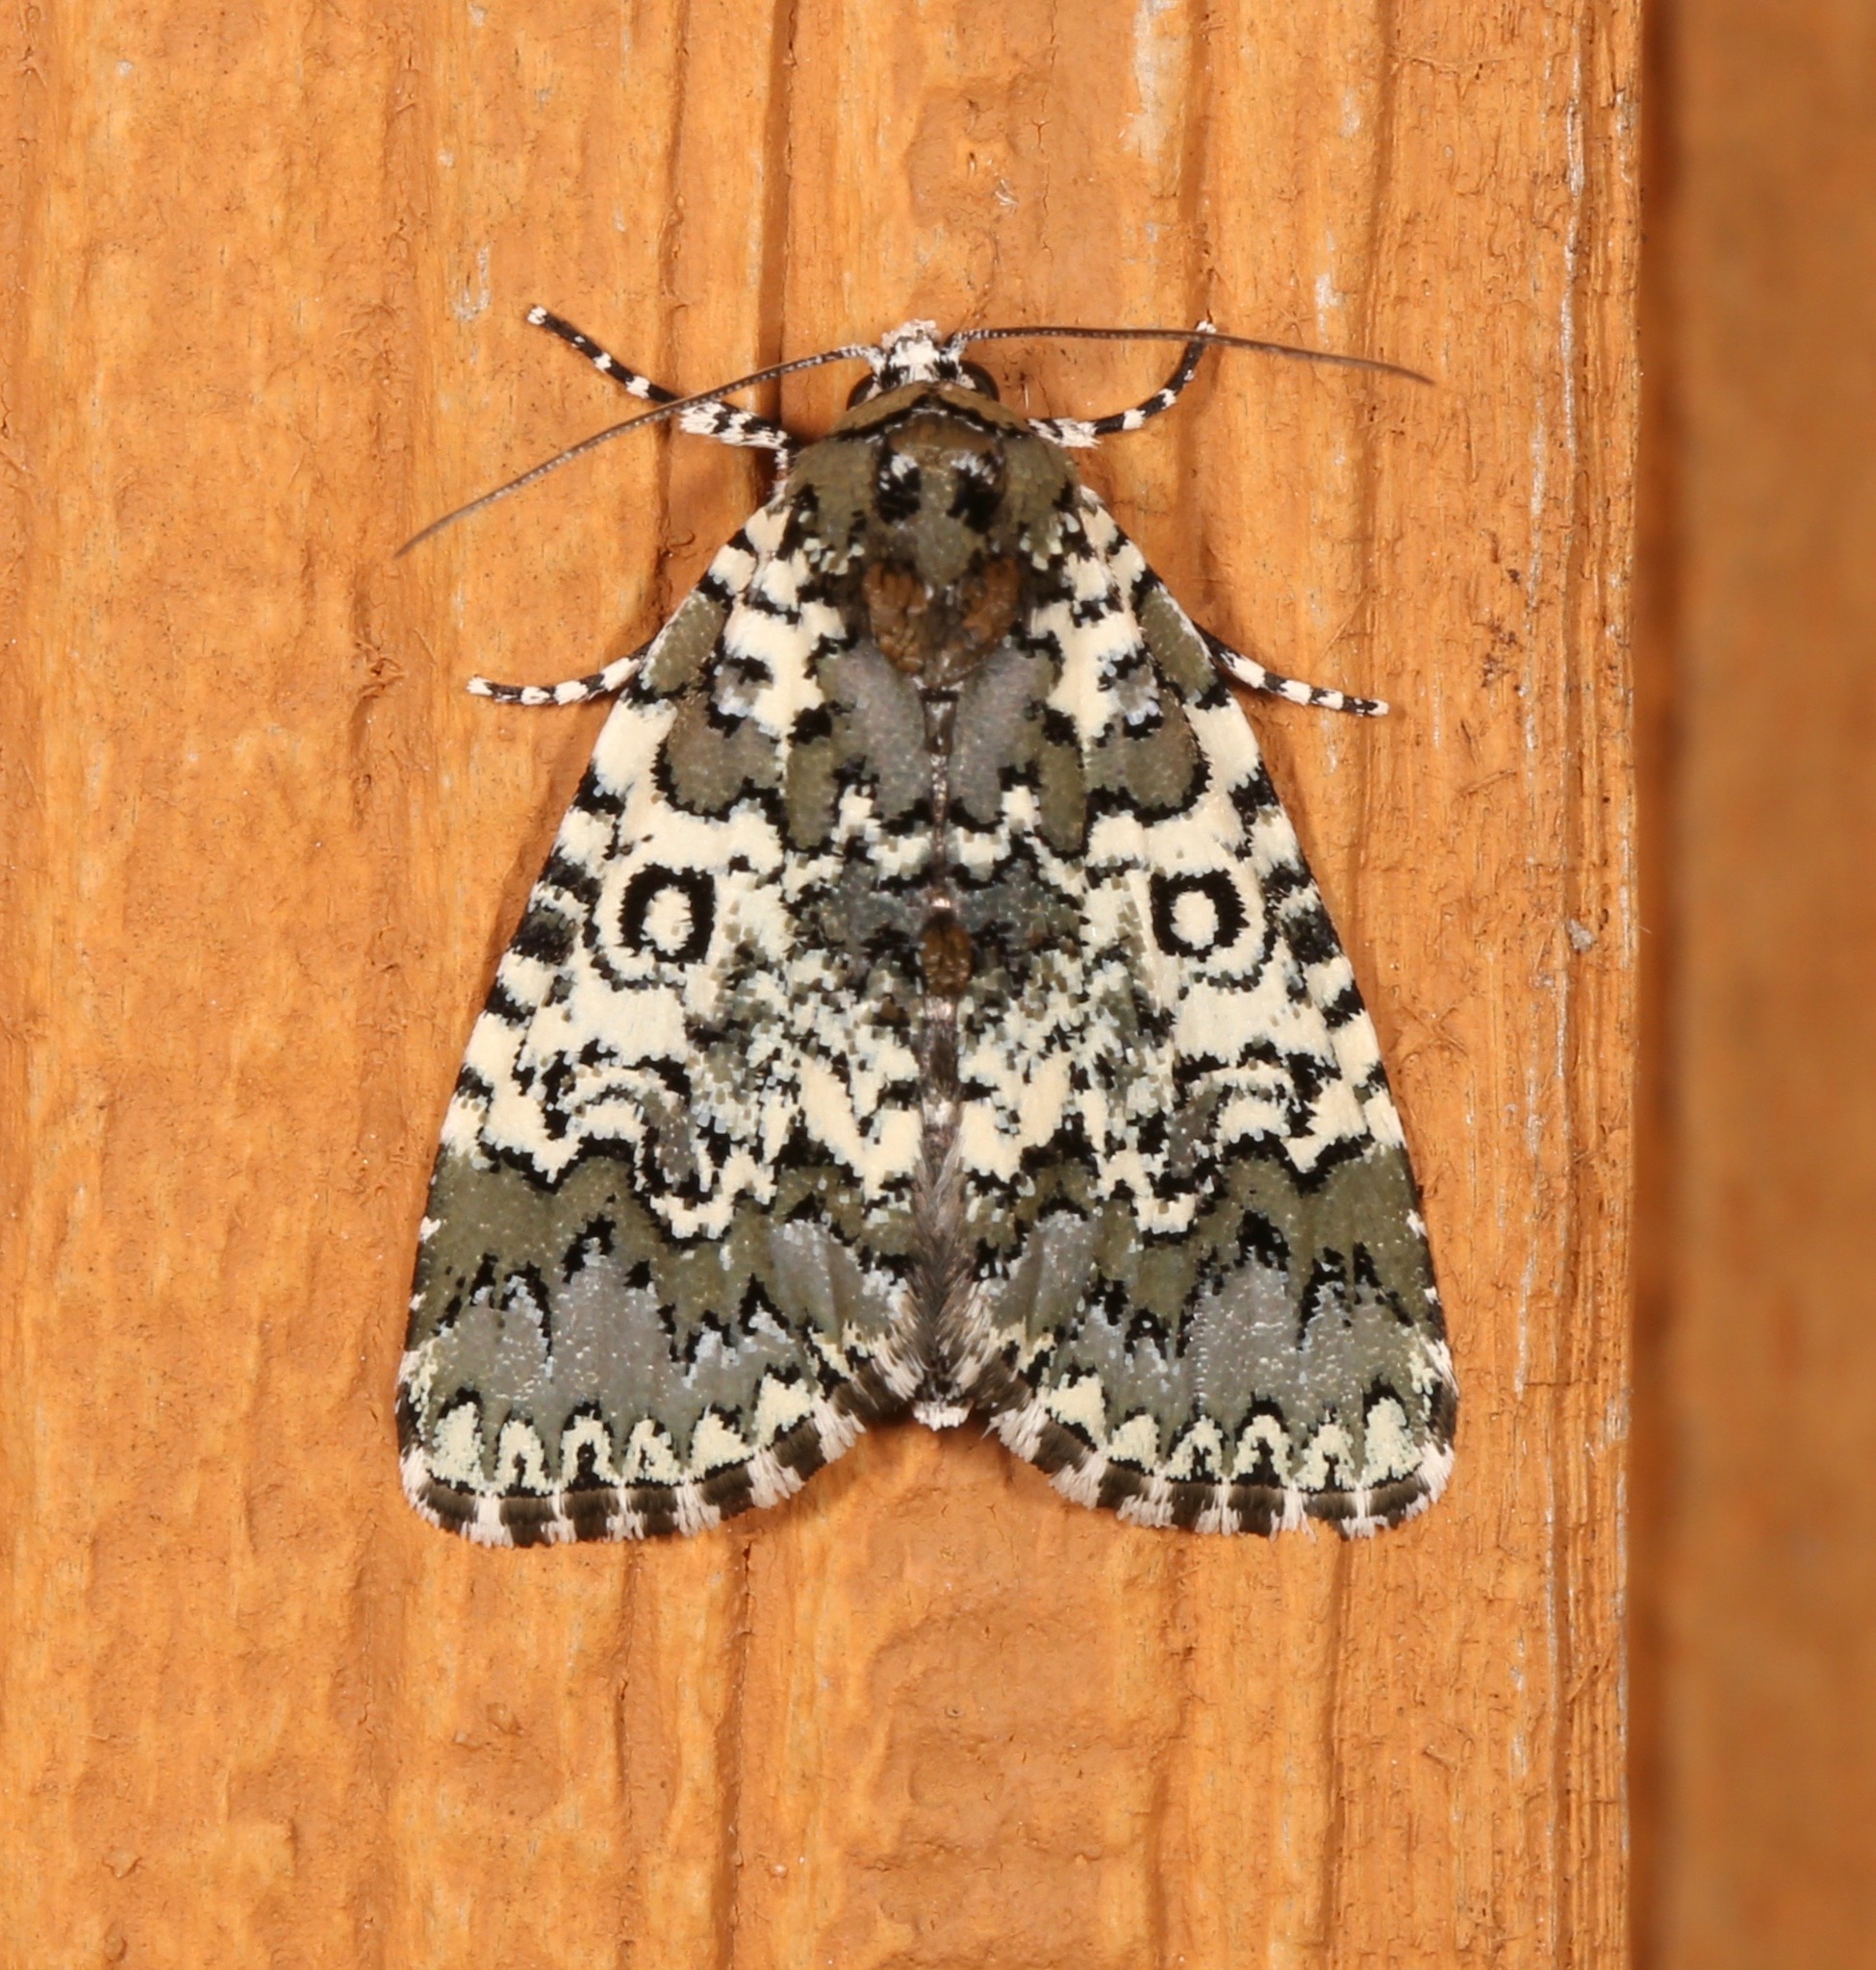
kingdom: Animalia
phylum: Arthropoda
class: Insecta
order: Lepidoptera
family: Noctuidae
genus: Cerma
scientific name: Cerma cora
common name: Bird dropping moth
